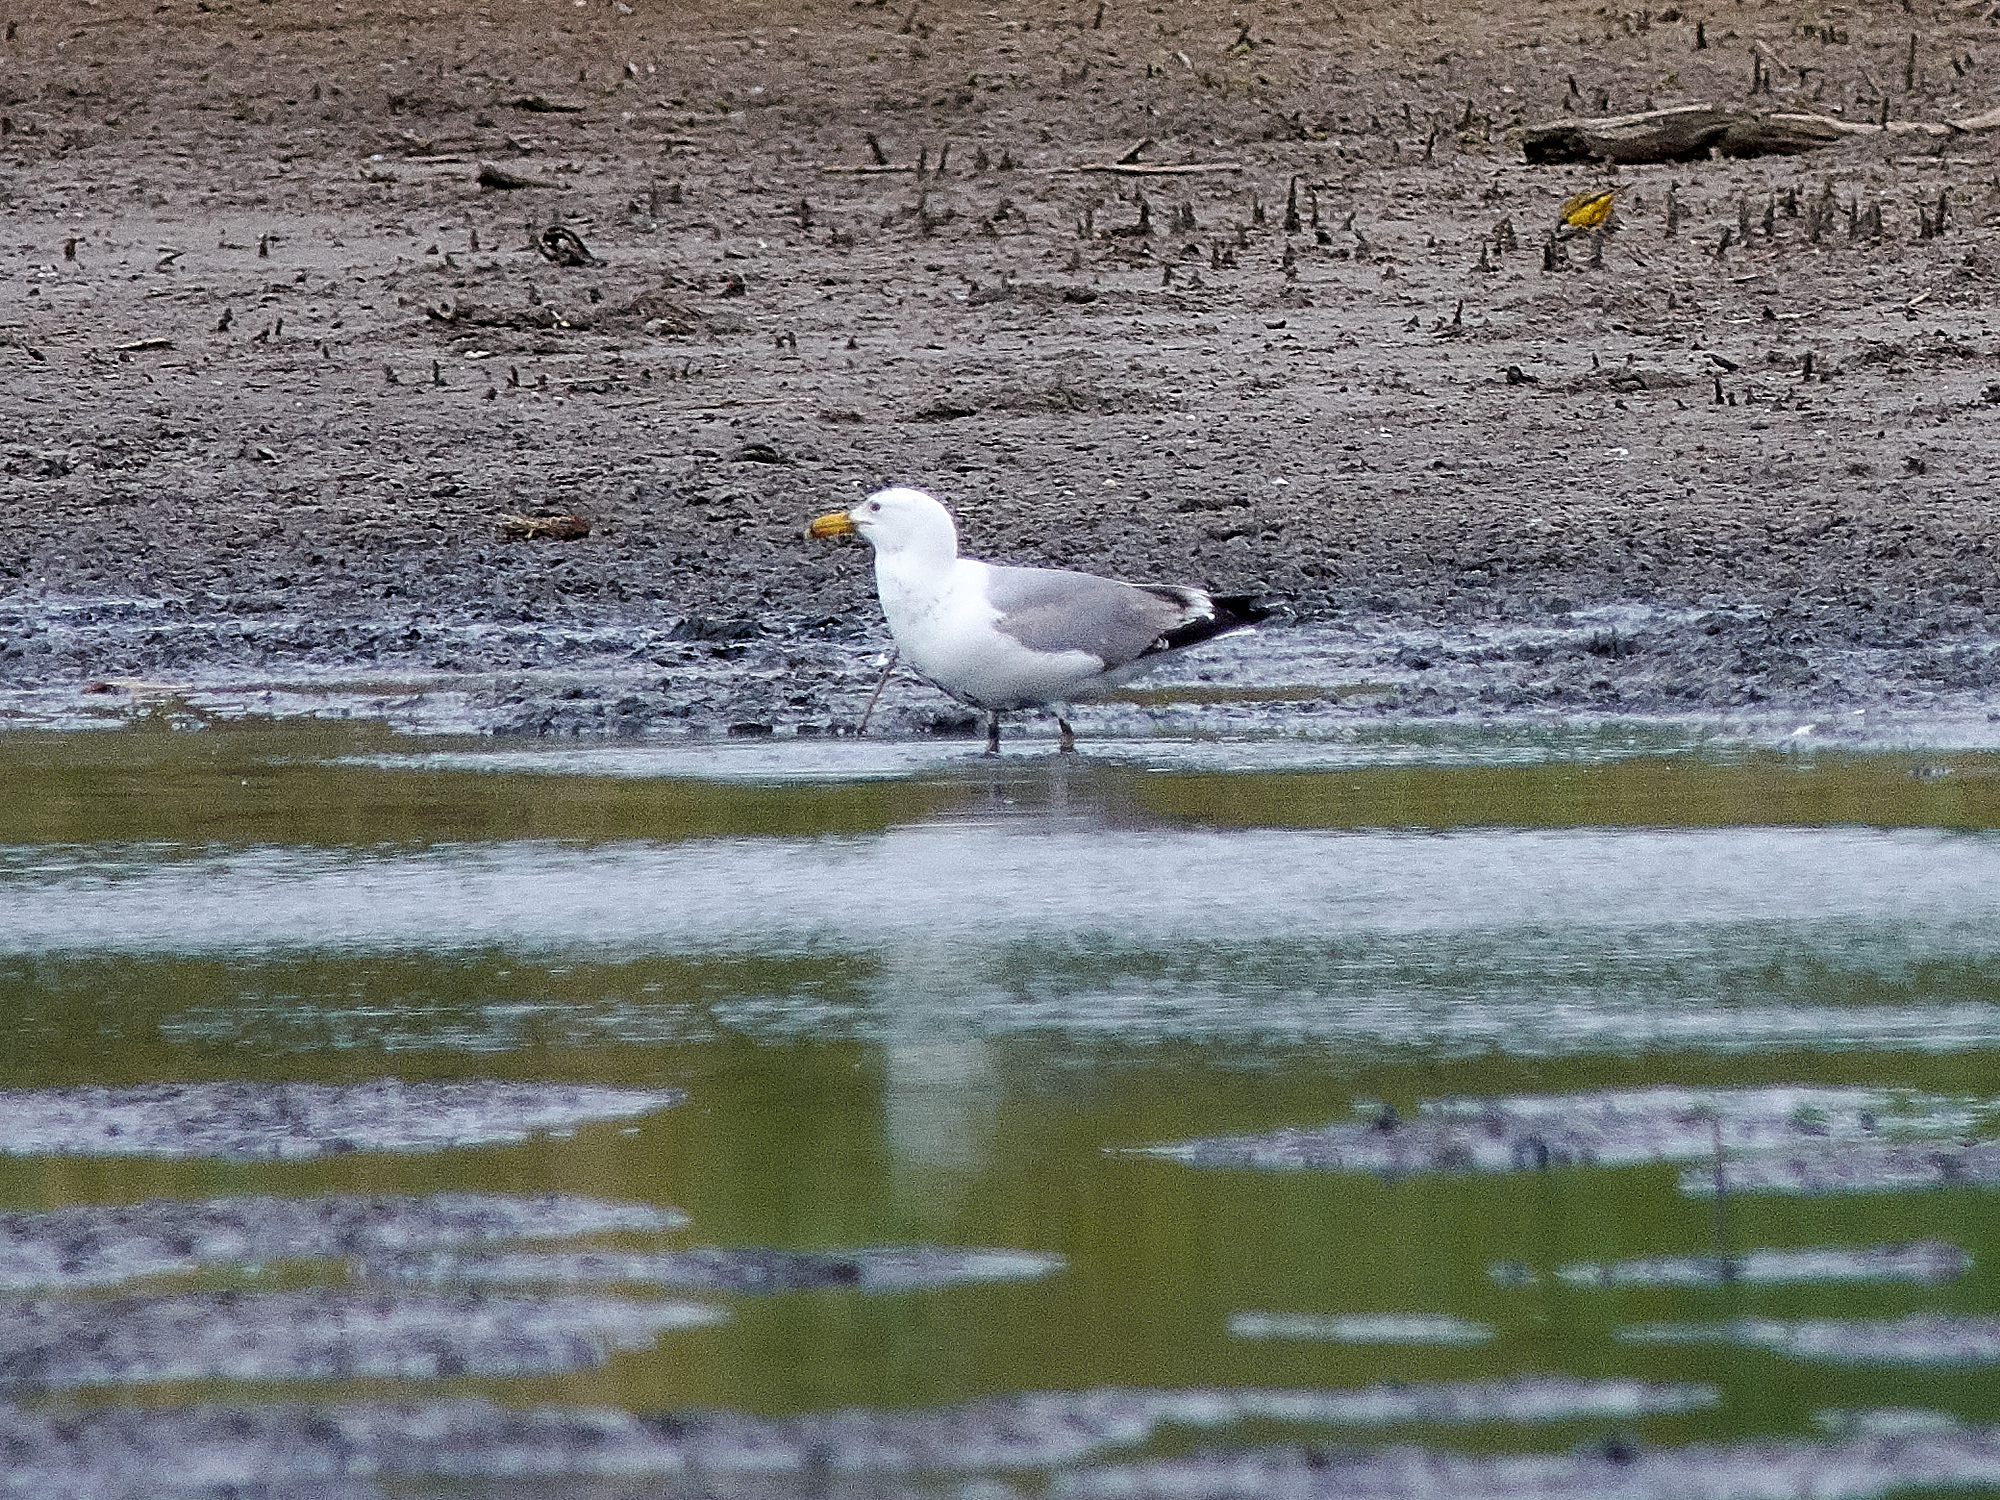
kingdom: Animalia
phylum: Chordata
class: Aves
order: Charadriiformes
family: Laridae
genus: Larus
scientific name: Larus argentatus
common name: Herring gull
